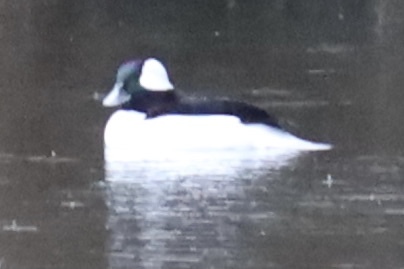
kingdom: Animalia
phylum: Chordata
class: Aves
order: Anseriformes
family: Anatidae
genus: Bucephala
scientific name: Bucephala albeola
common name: Bufflehead
